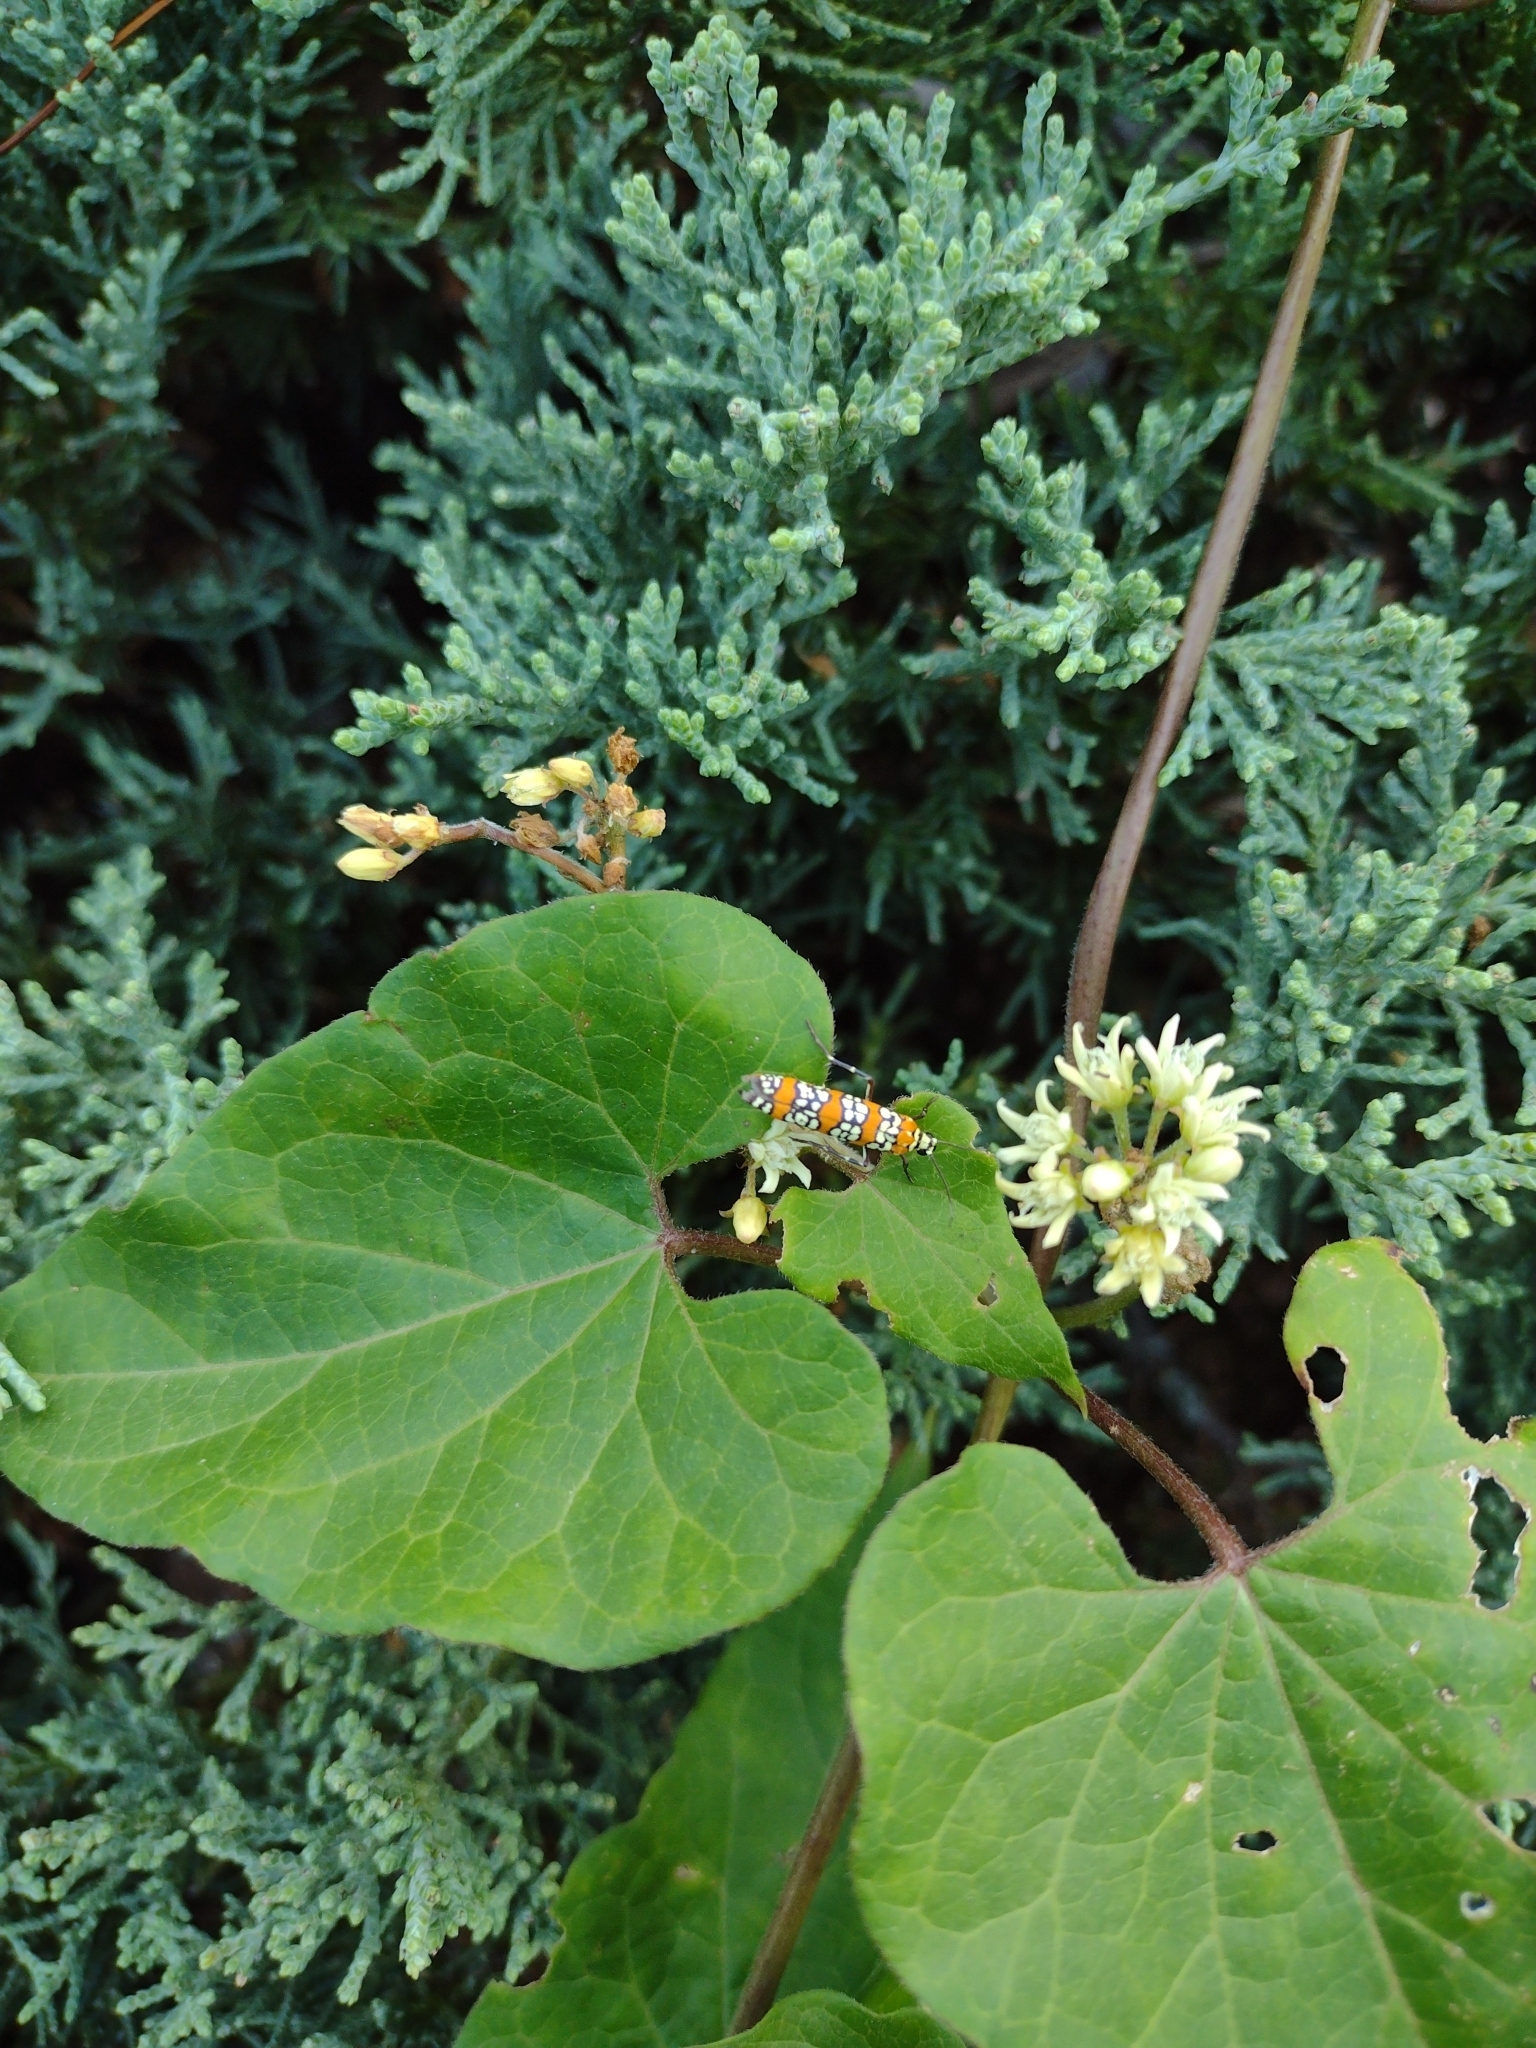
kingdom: Animalia
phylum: Arthropoda
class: Insecta
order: Lepidoptera
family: Attevidae
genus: Atteva
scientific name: Atteva punctella
